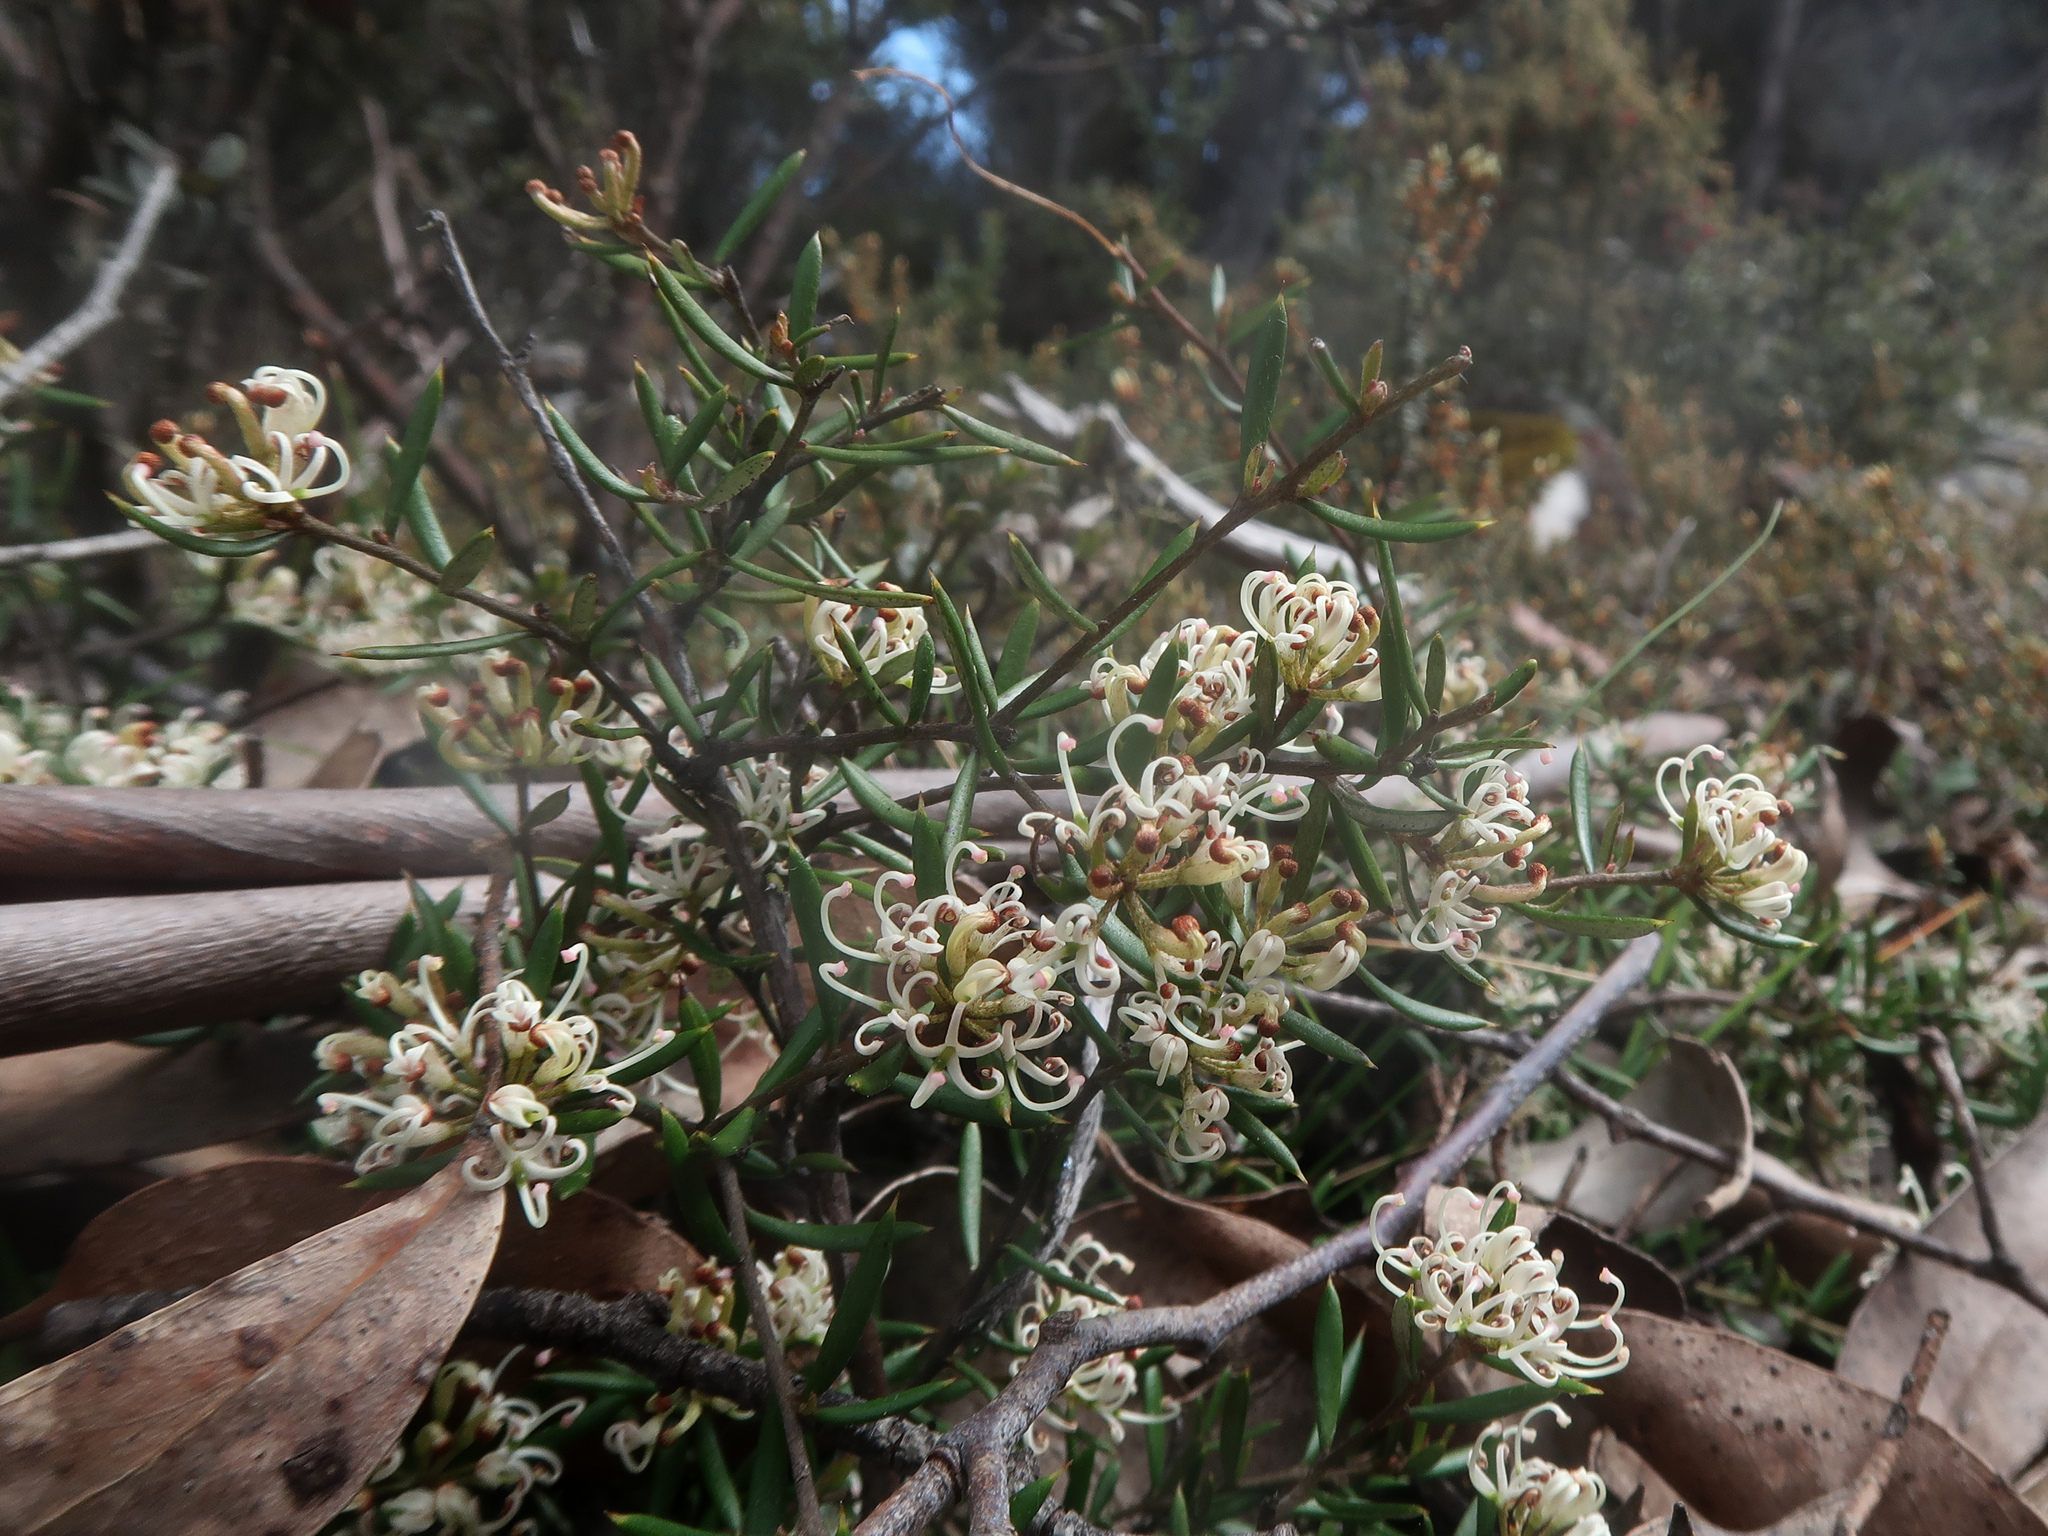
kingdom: Plantae
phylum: Tracheophyta
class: Magnoliopsida
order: Proteales
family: Proteaceae
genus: Grevillea
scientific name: Grevillea australis
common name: Alpine grevillea
